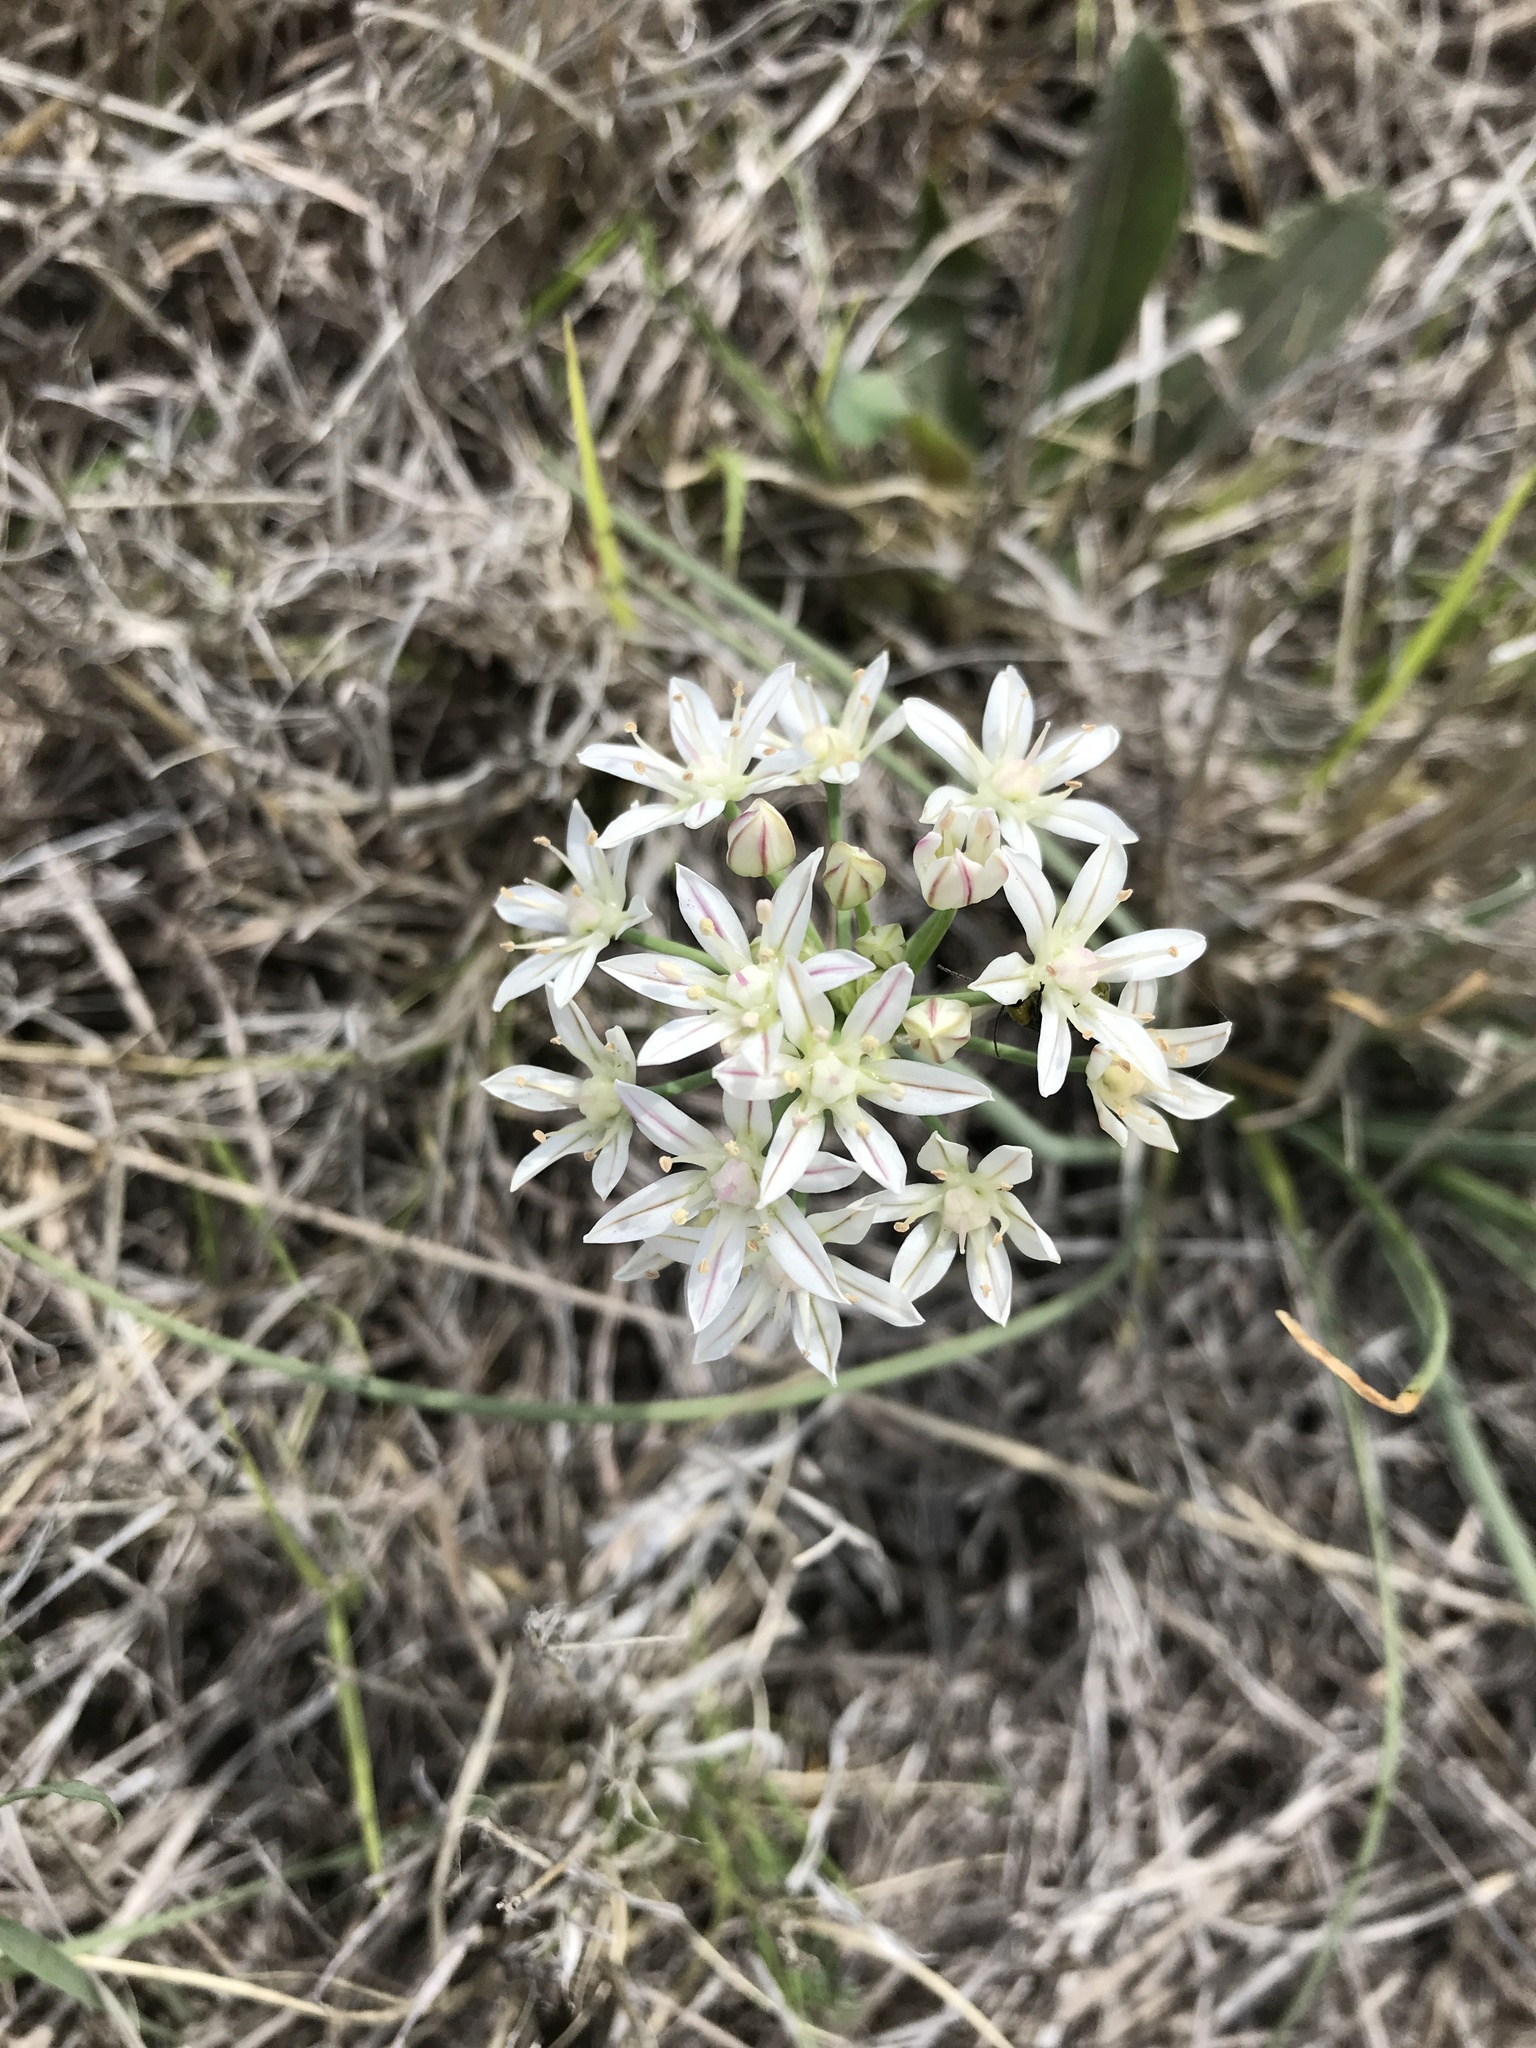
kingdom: Plantae
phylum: Tracheophyta
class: Liliopsida
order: Asparagales
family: Amaryllidaceae
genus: Allium
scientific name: Allium drummondii
